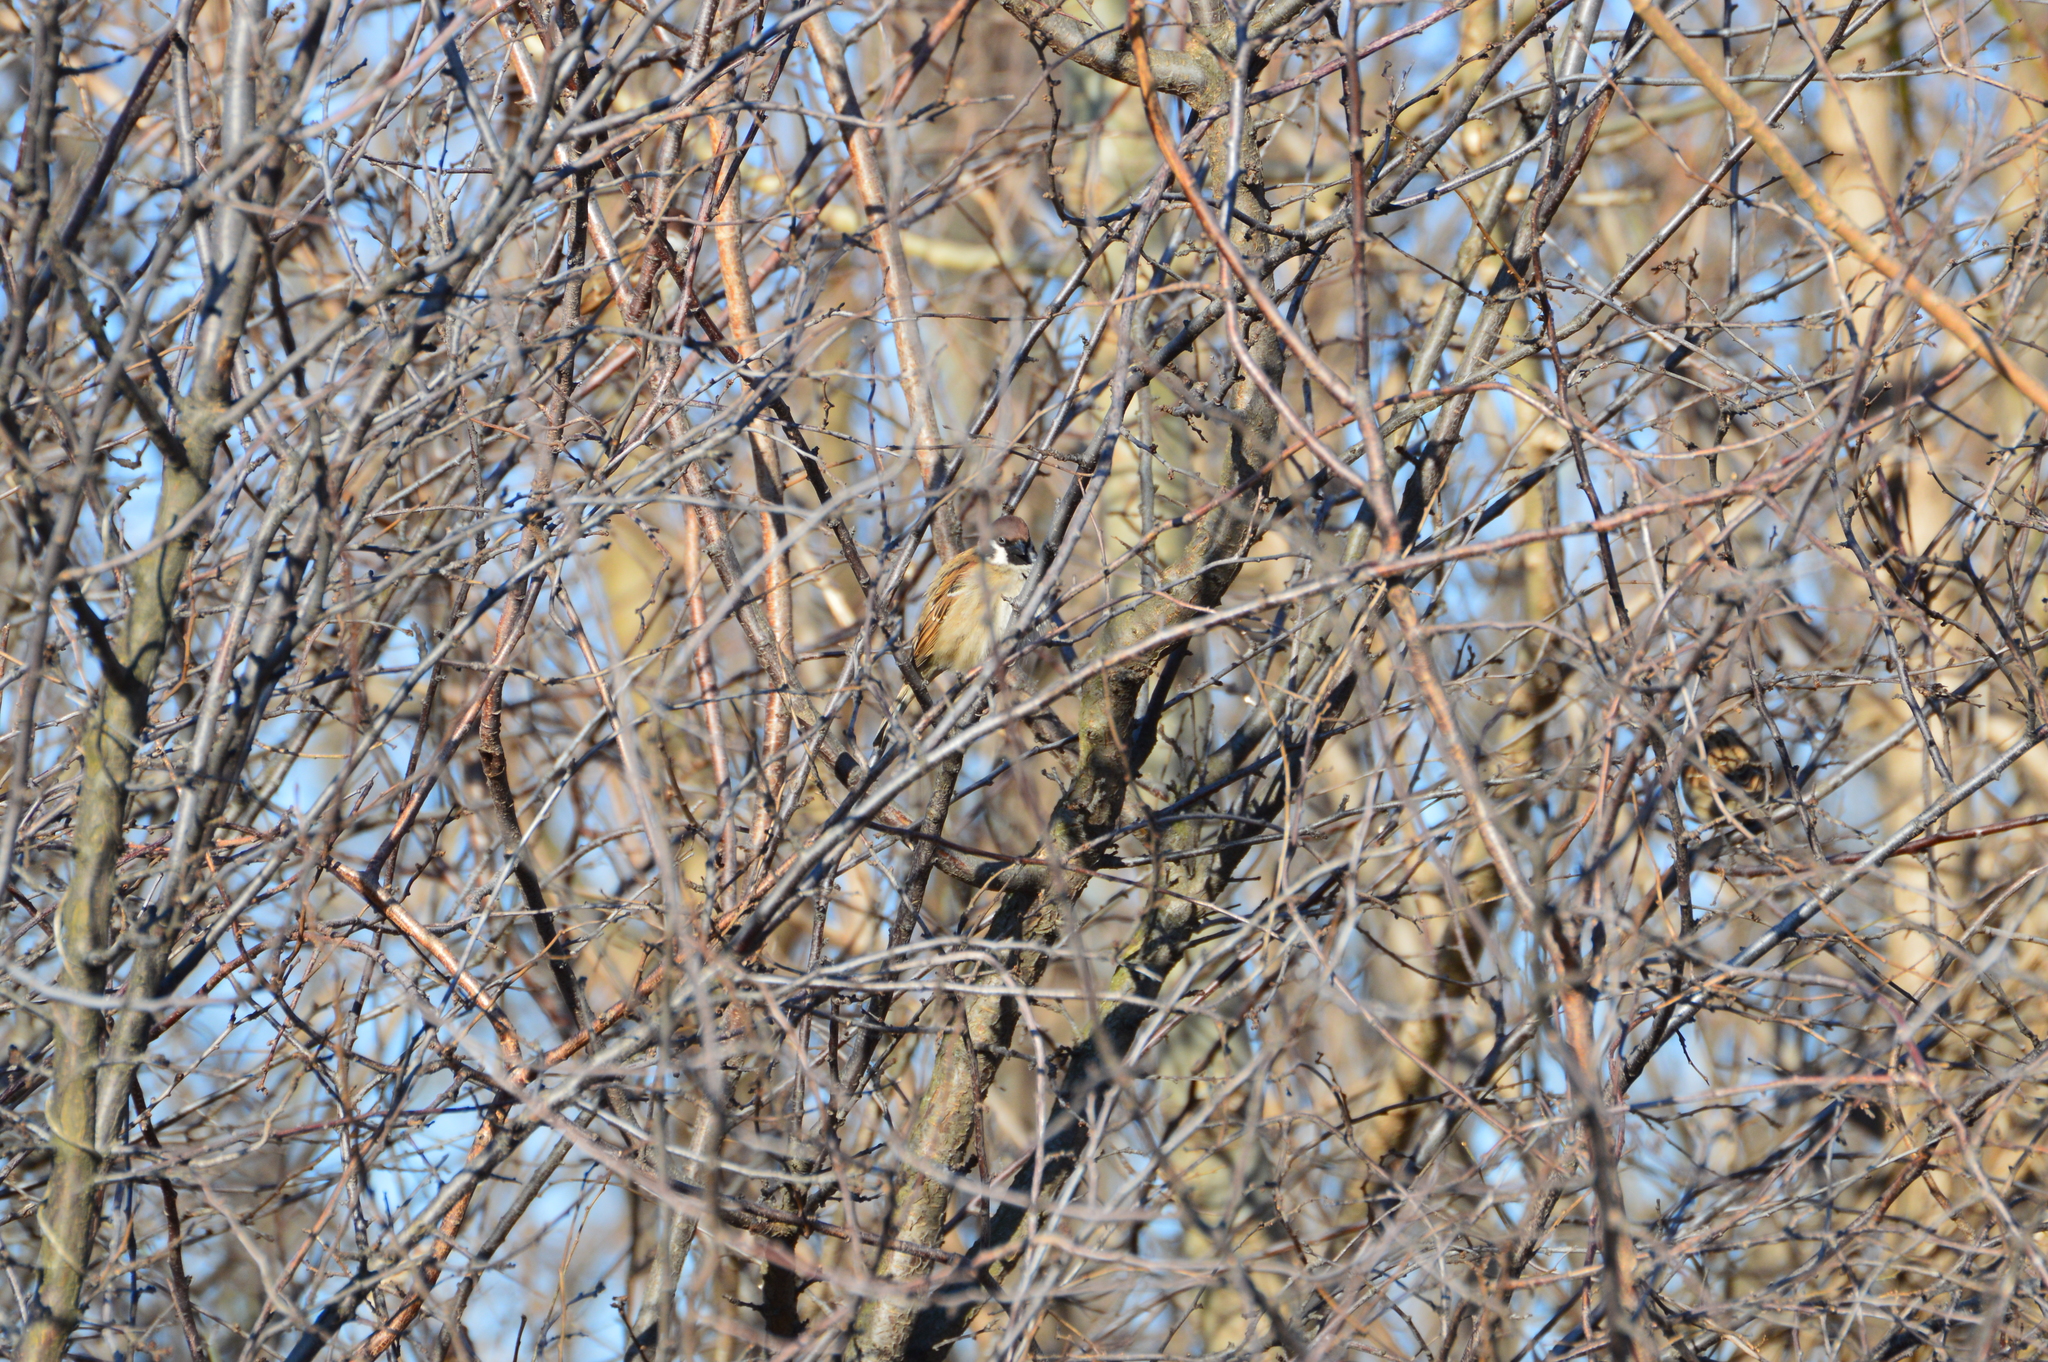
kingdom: Animalia
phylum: Chordata
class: Aves
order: Passeriformes
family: Passeridae
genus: Passer
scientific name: Passer montanus
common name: Eurasian tree sparrow
